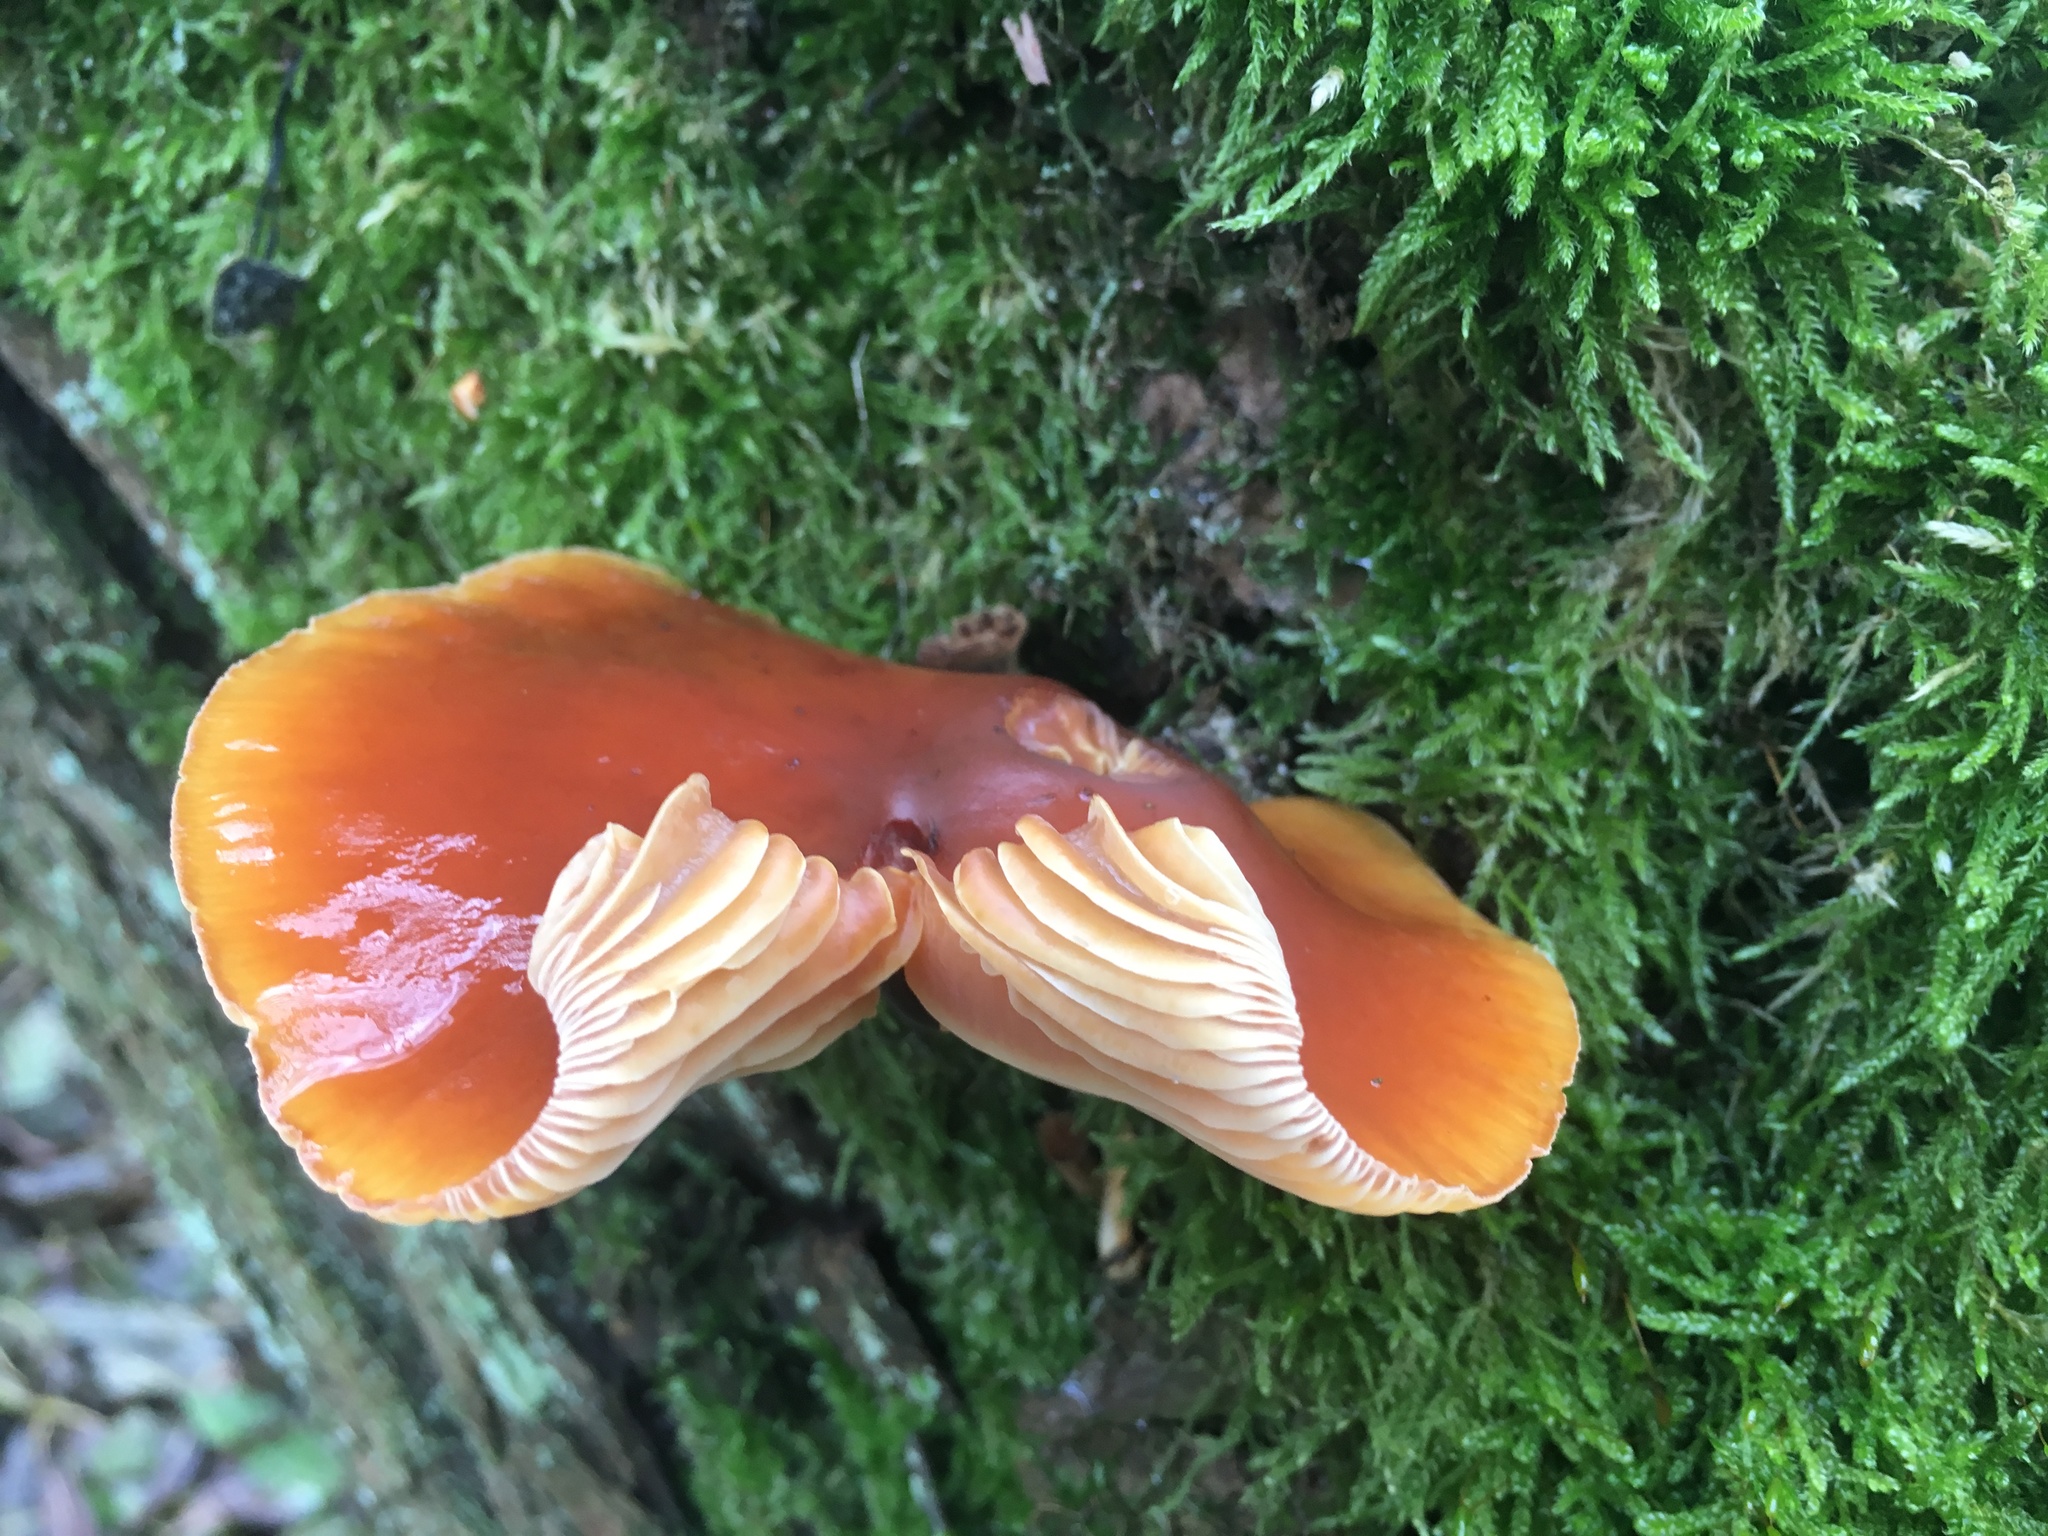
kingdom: Fungi
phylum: Basidiomycota
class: Agaricomycetes
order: Agaricales
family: Physalacriaceae
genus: Flammulina
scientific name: Flammulina
